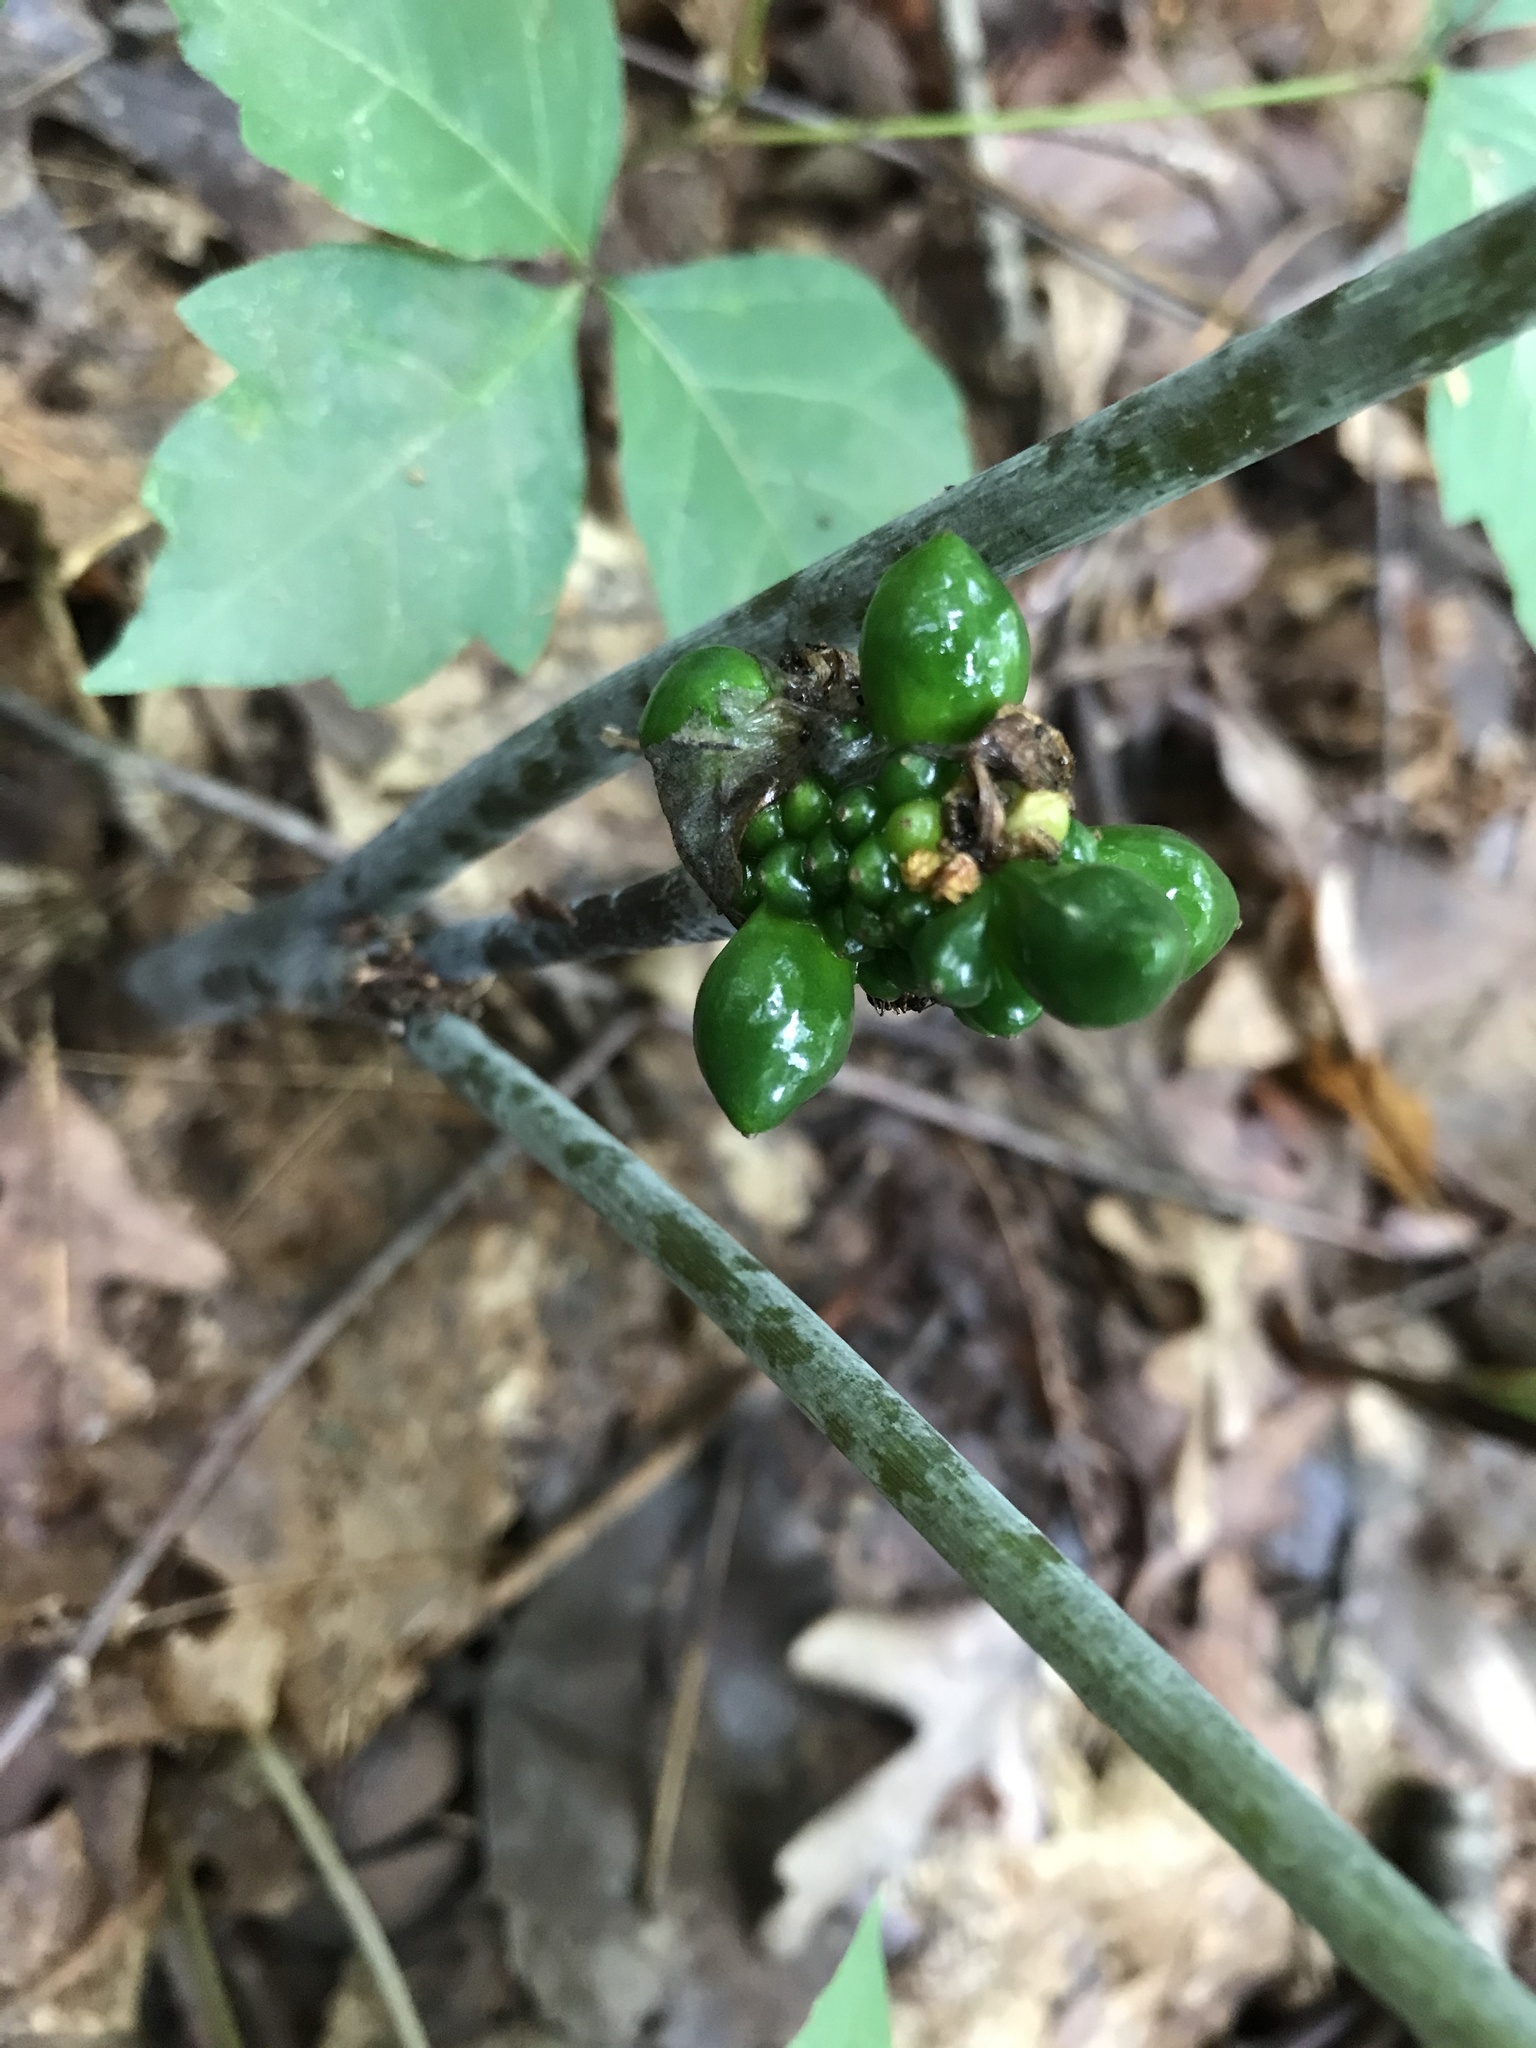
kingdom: Plantae
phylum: Tracheophyta
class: Liliopsida
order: Alismatales
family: Araceae
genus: Arisaema
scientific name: Arisaema triphyllum
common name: Jack-in-the-pulpit
